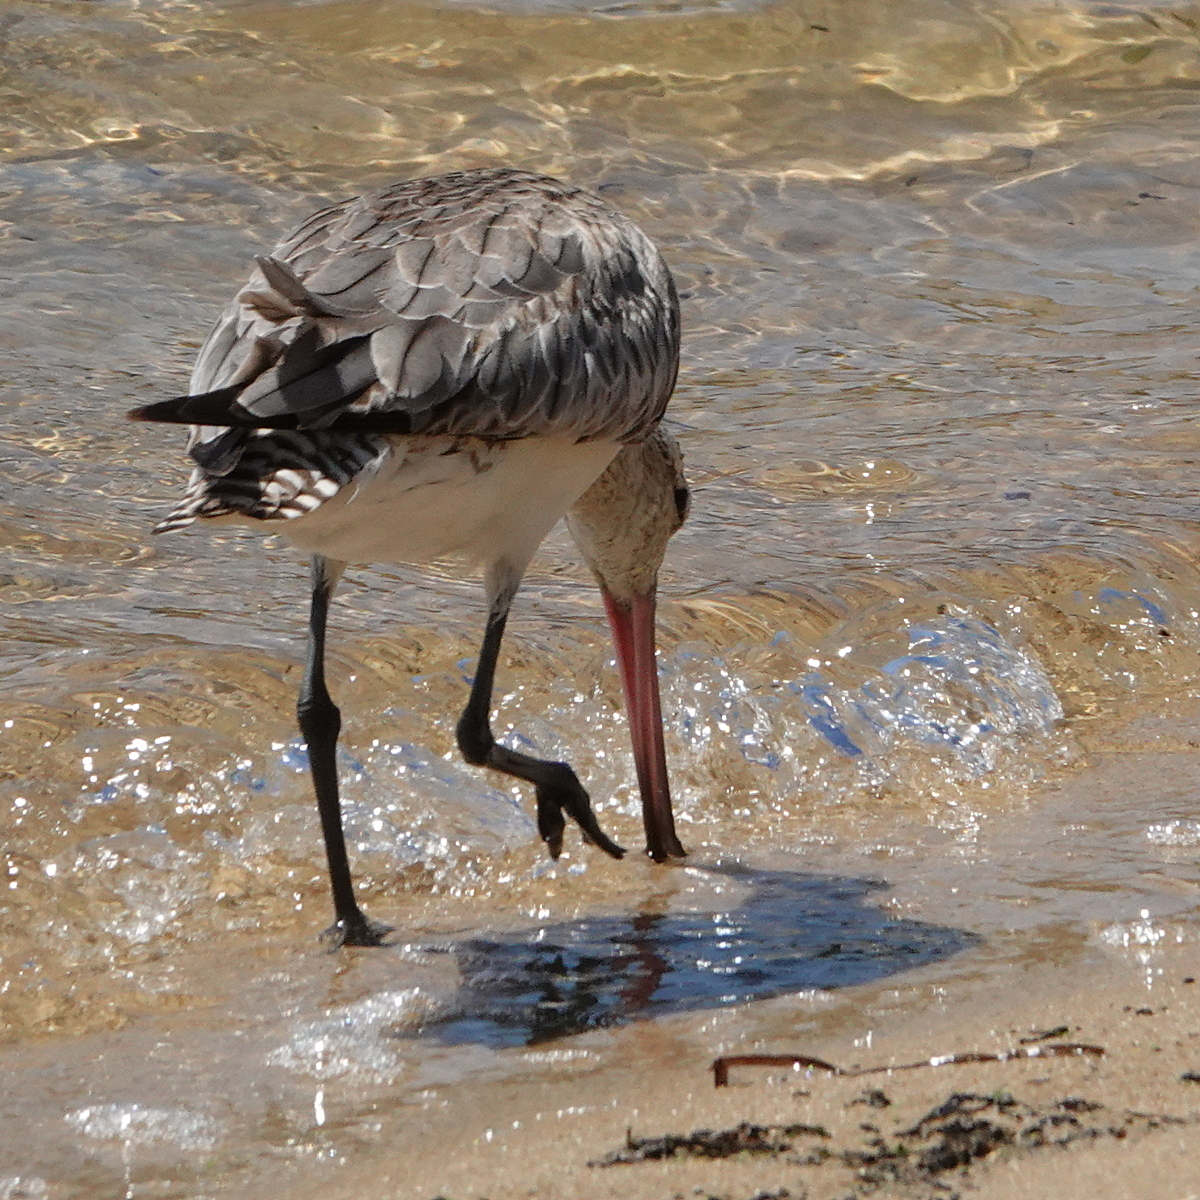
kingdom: Animalia
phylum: Chordata
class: Aves
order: Charadriiformes
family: Scolopacidae
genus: Limosa
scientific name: Limosa lapponica
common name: Bar-tailed godwit
